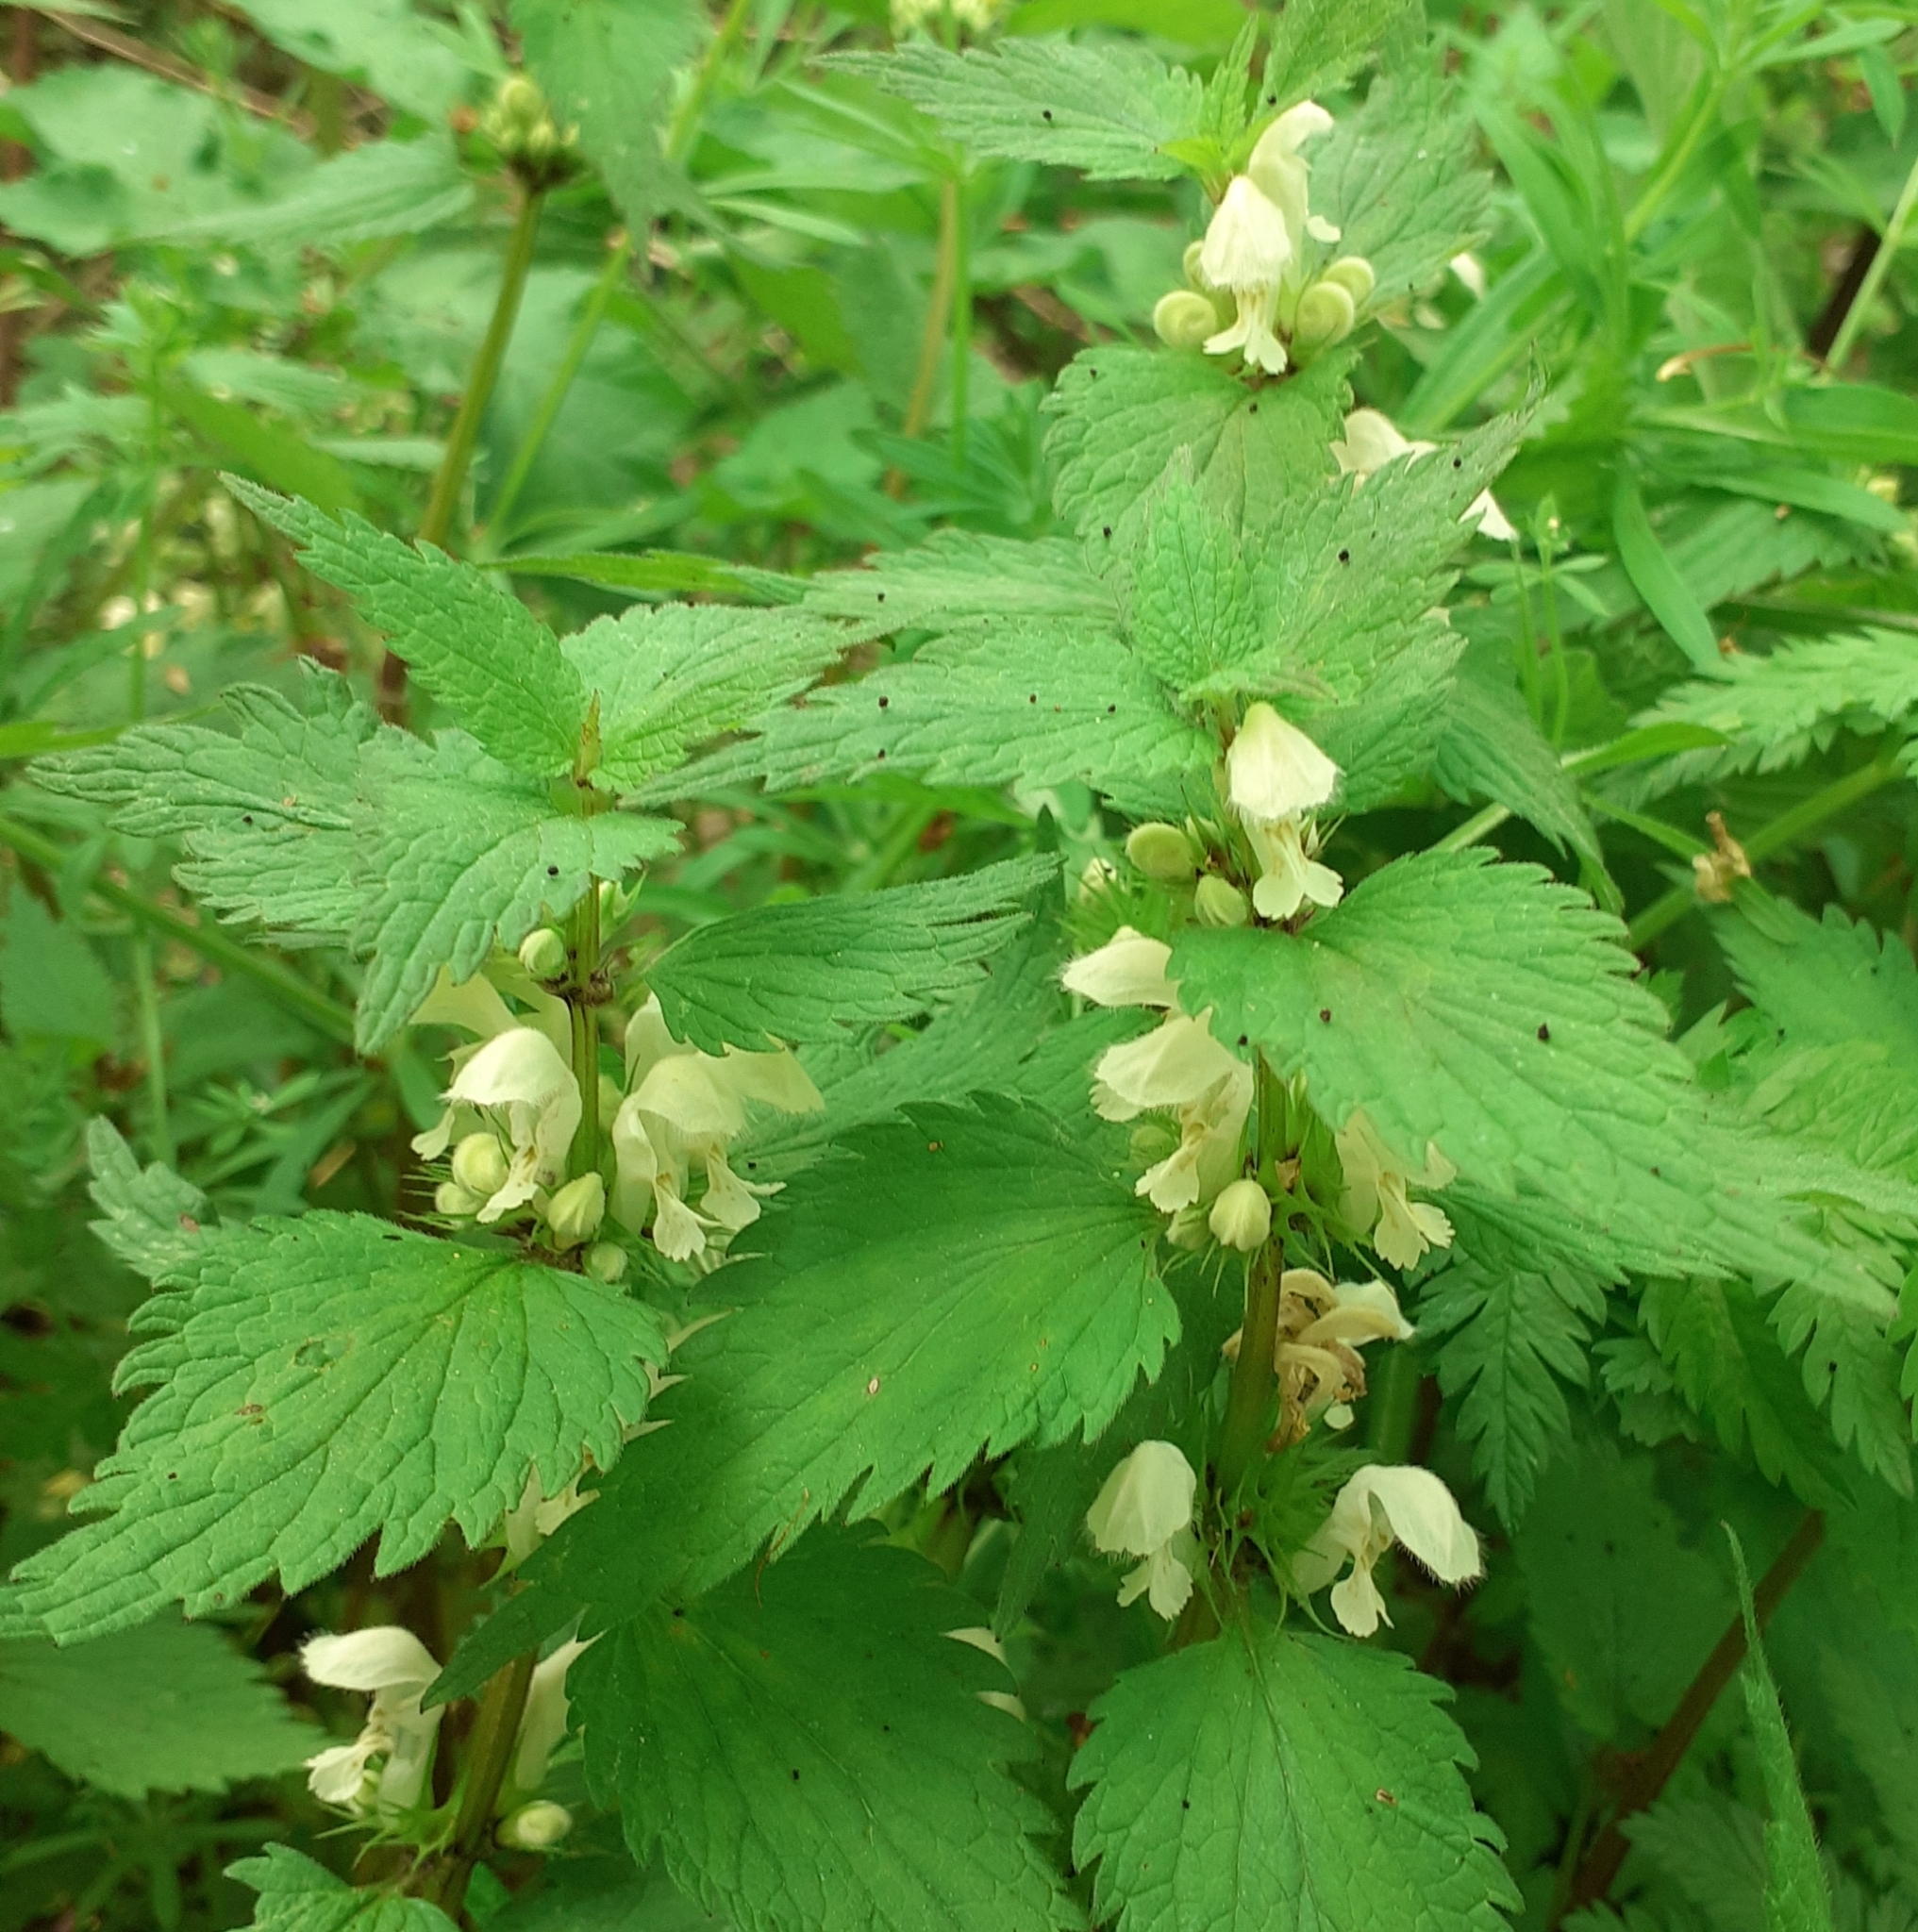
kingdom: Plantae
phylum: Tracheophyta
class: Magnoliopsida
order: Lamiales
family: Lamiaceae
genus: Lamium
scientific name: Lamium album
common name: White dead-nettle
